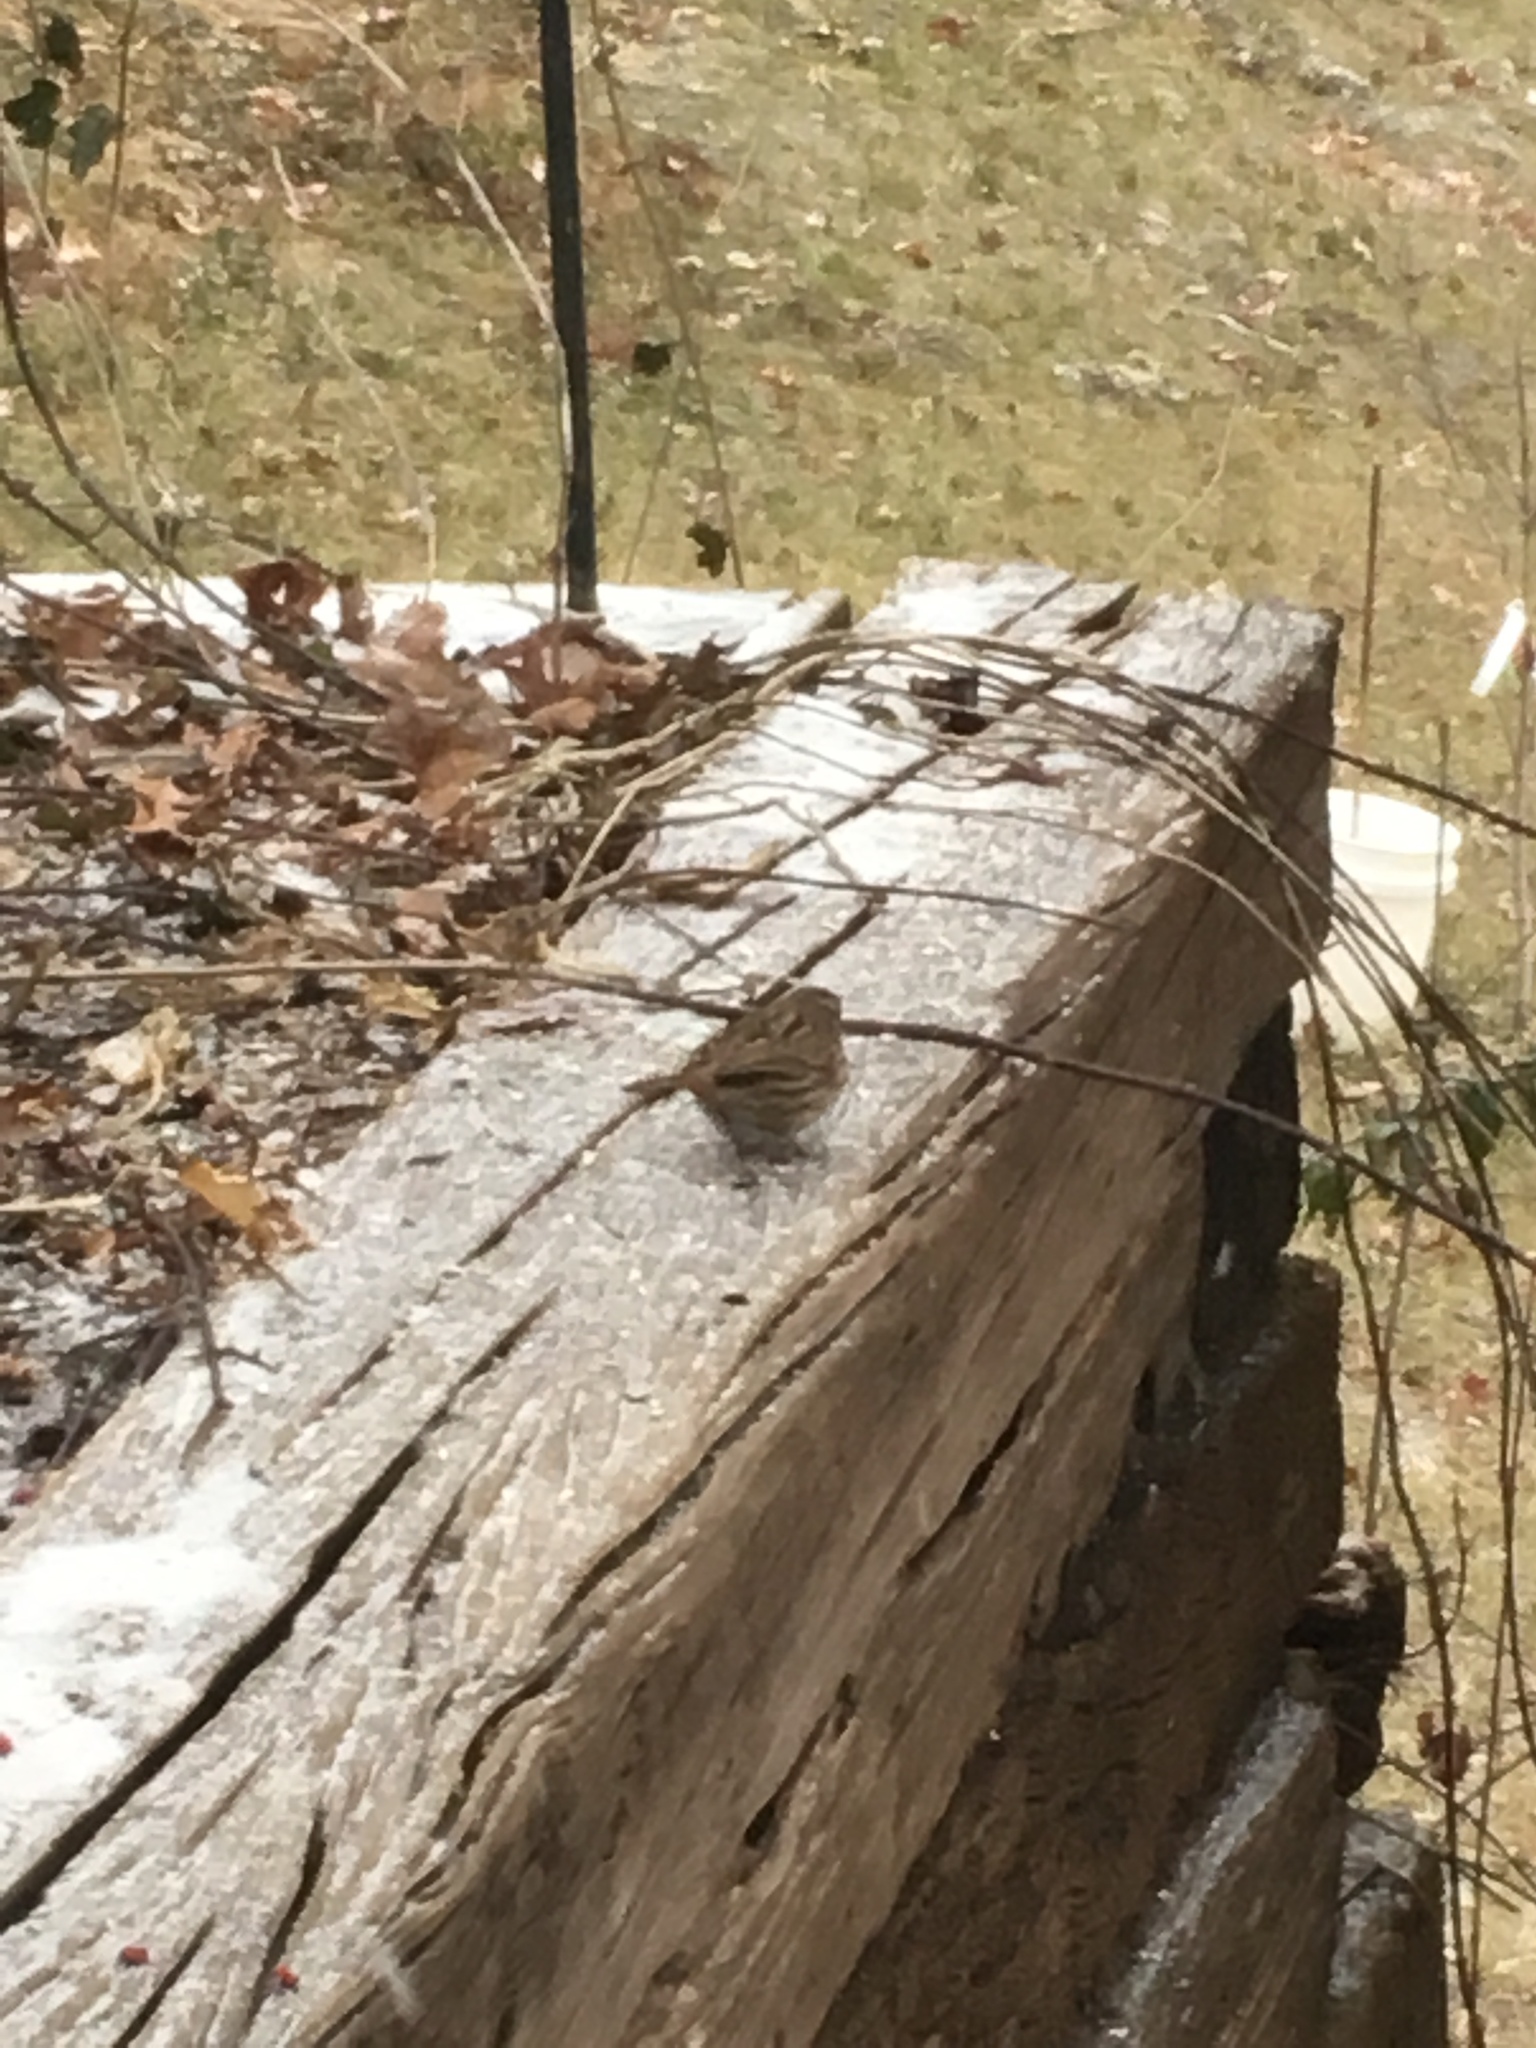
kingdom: Animalia
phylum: Chordata
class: Aves
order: Passeriformes
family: Passerellidae
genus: Melospiza
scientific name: Melospiza melodia
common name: Song sparrow
